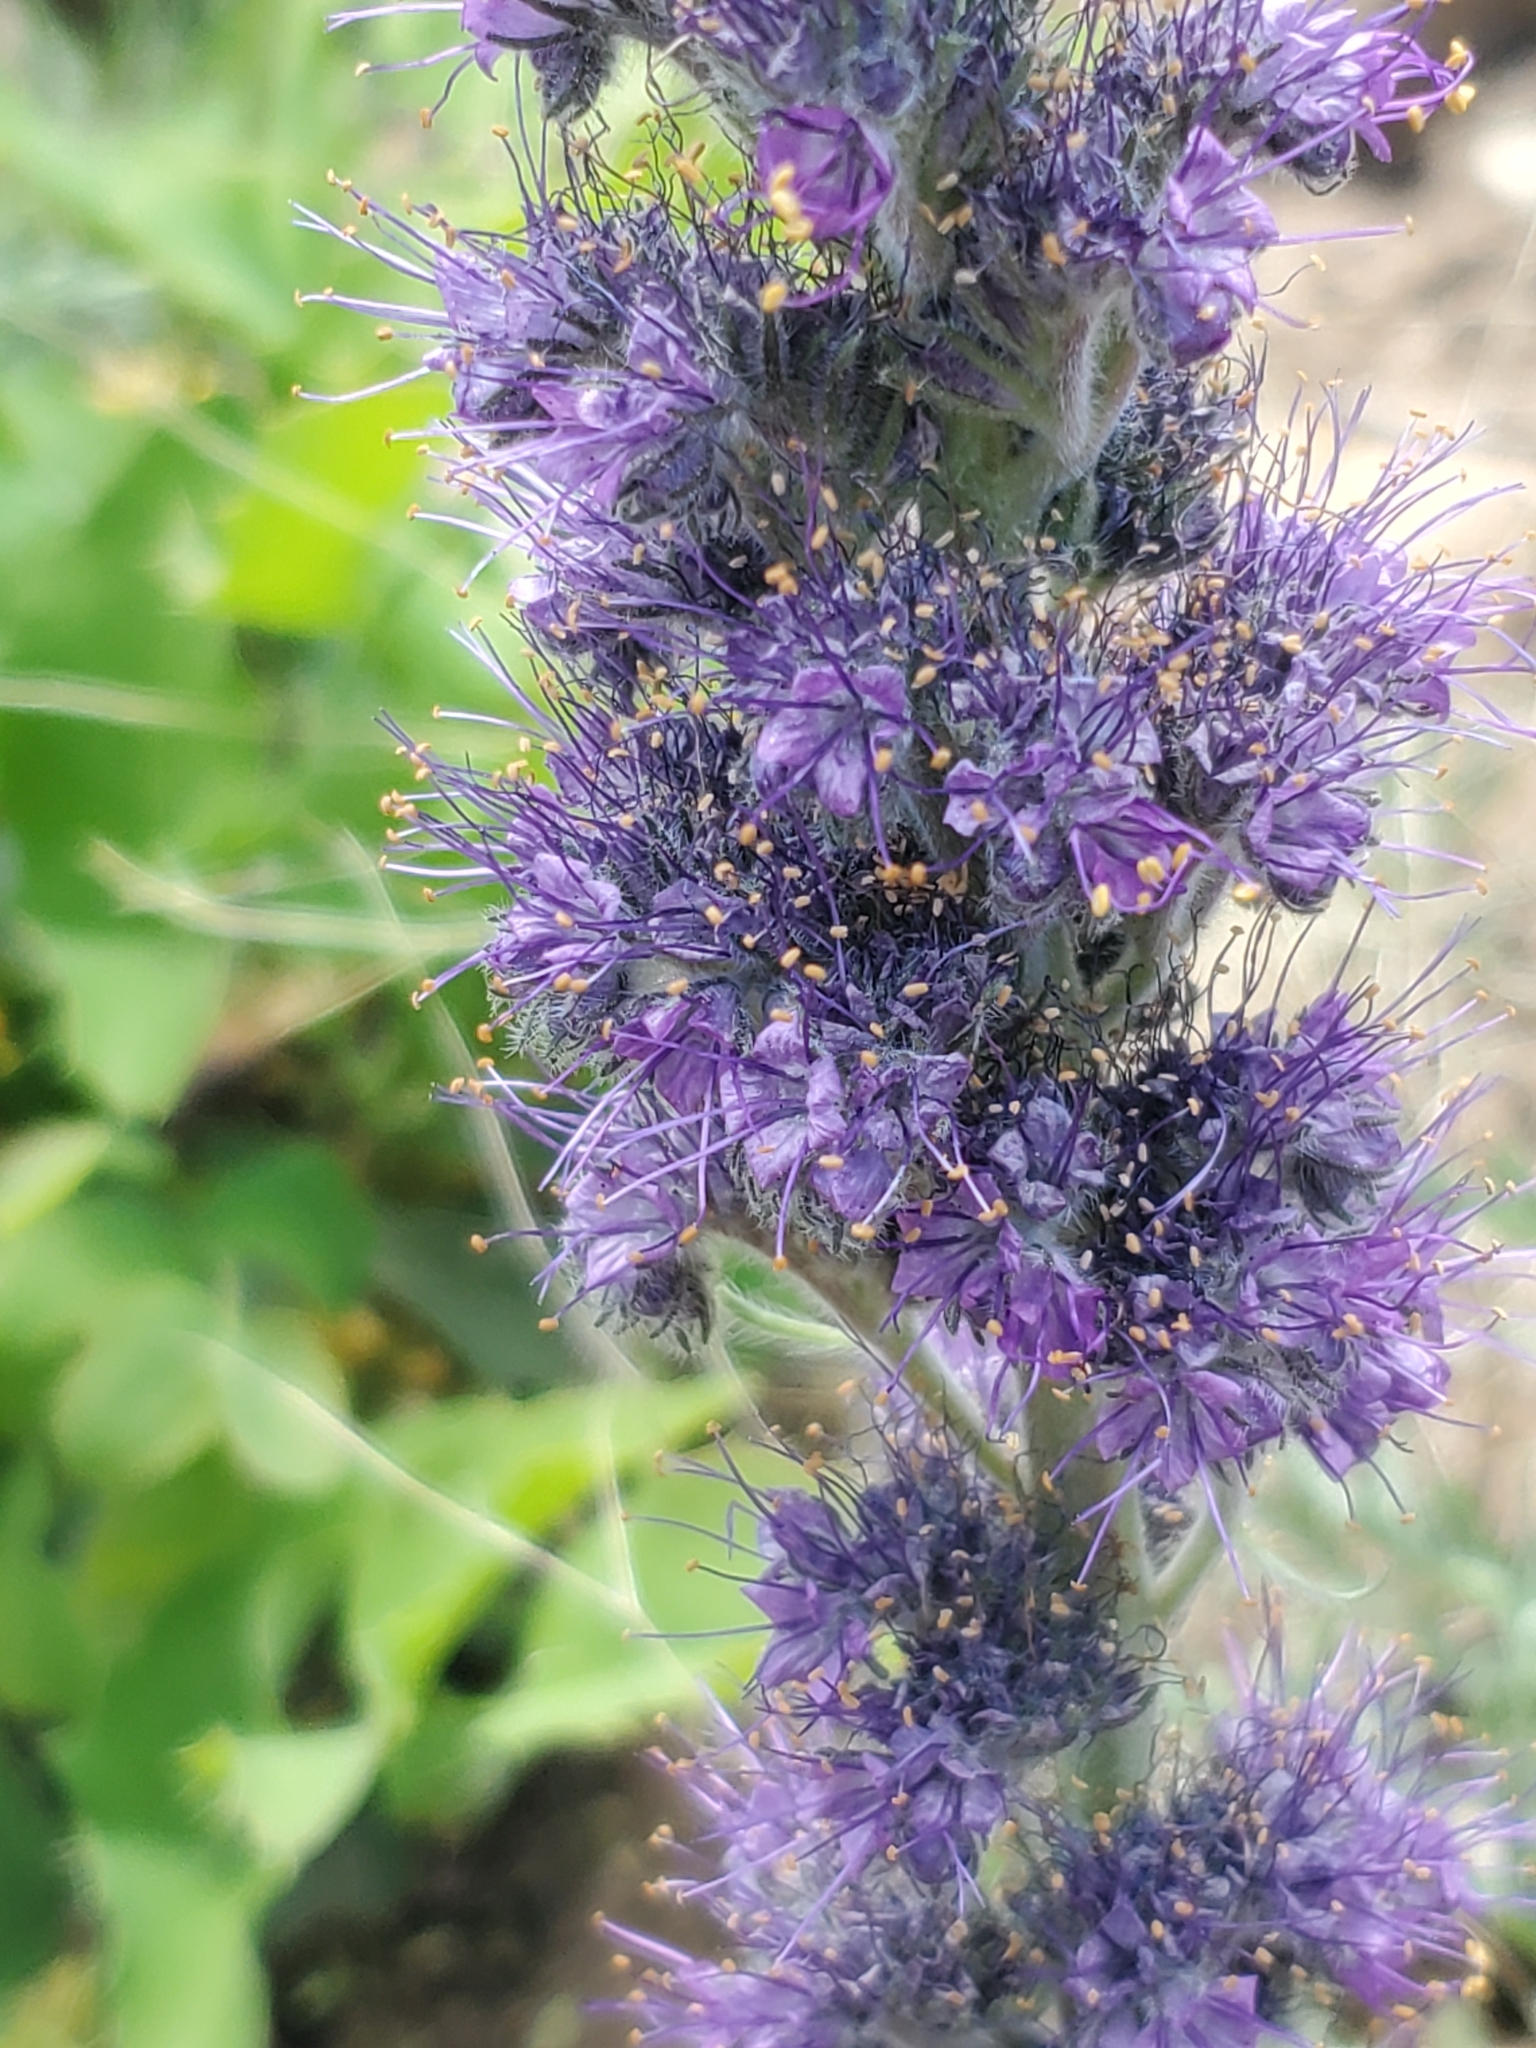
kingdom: Plantae
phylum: Tracheophyta
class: Magnoliopsida
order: Boraginales
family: Hydrophyllaceae
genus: Phacelia
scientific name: Phacelia sericea
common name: Silky phacelia
